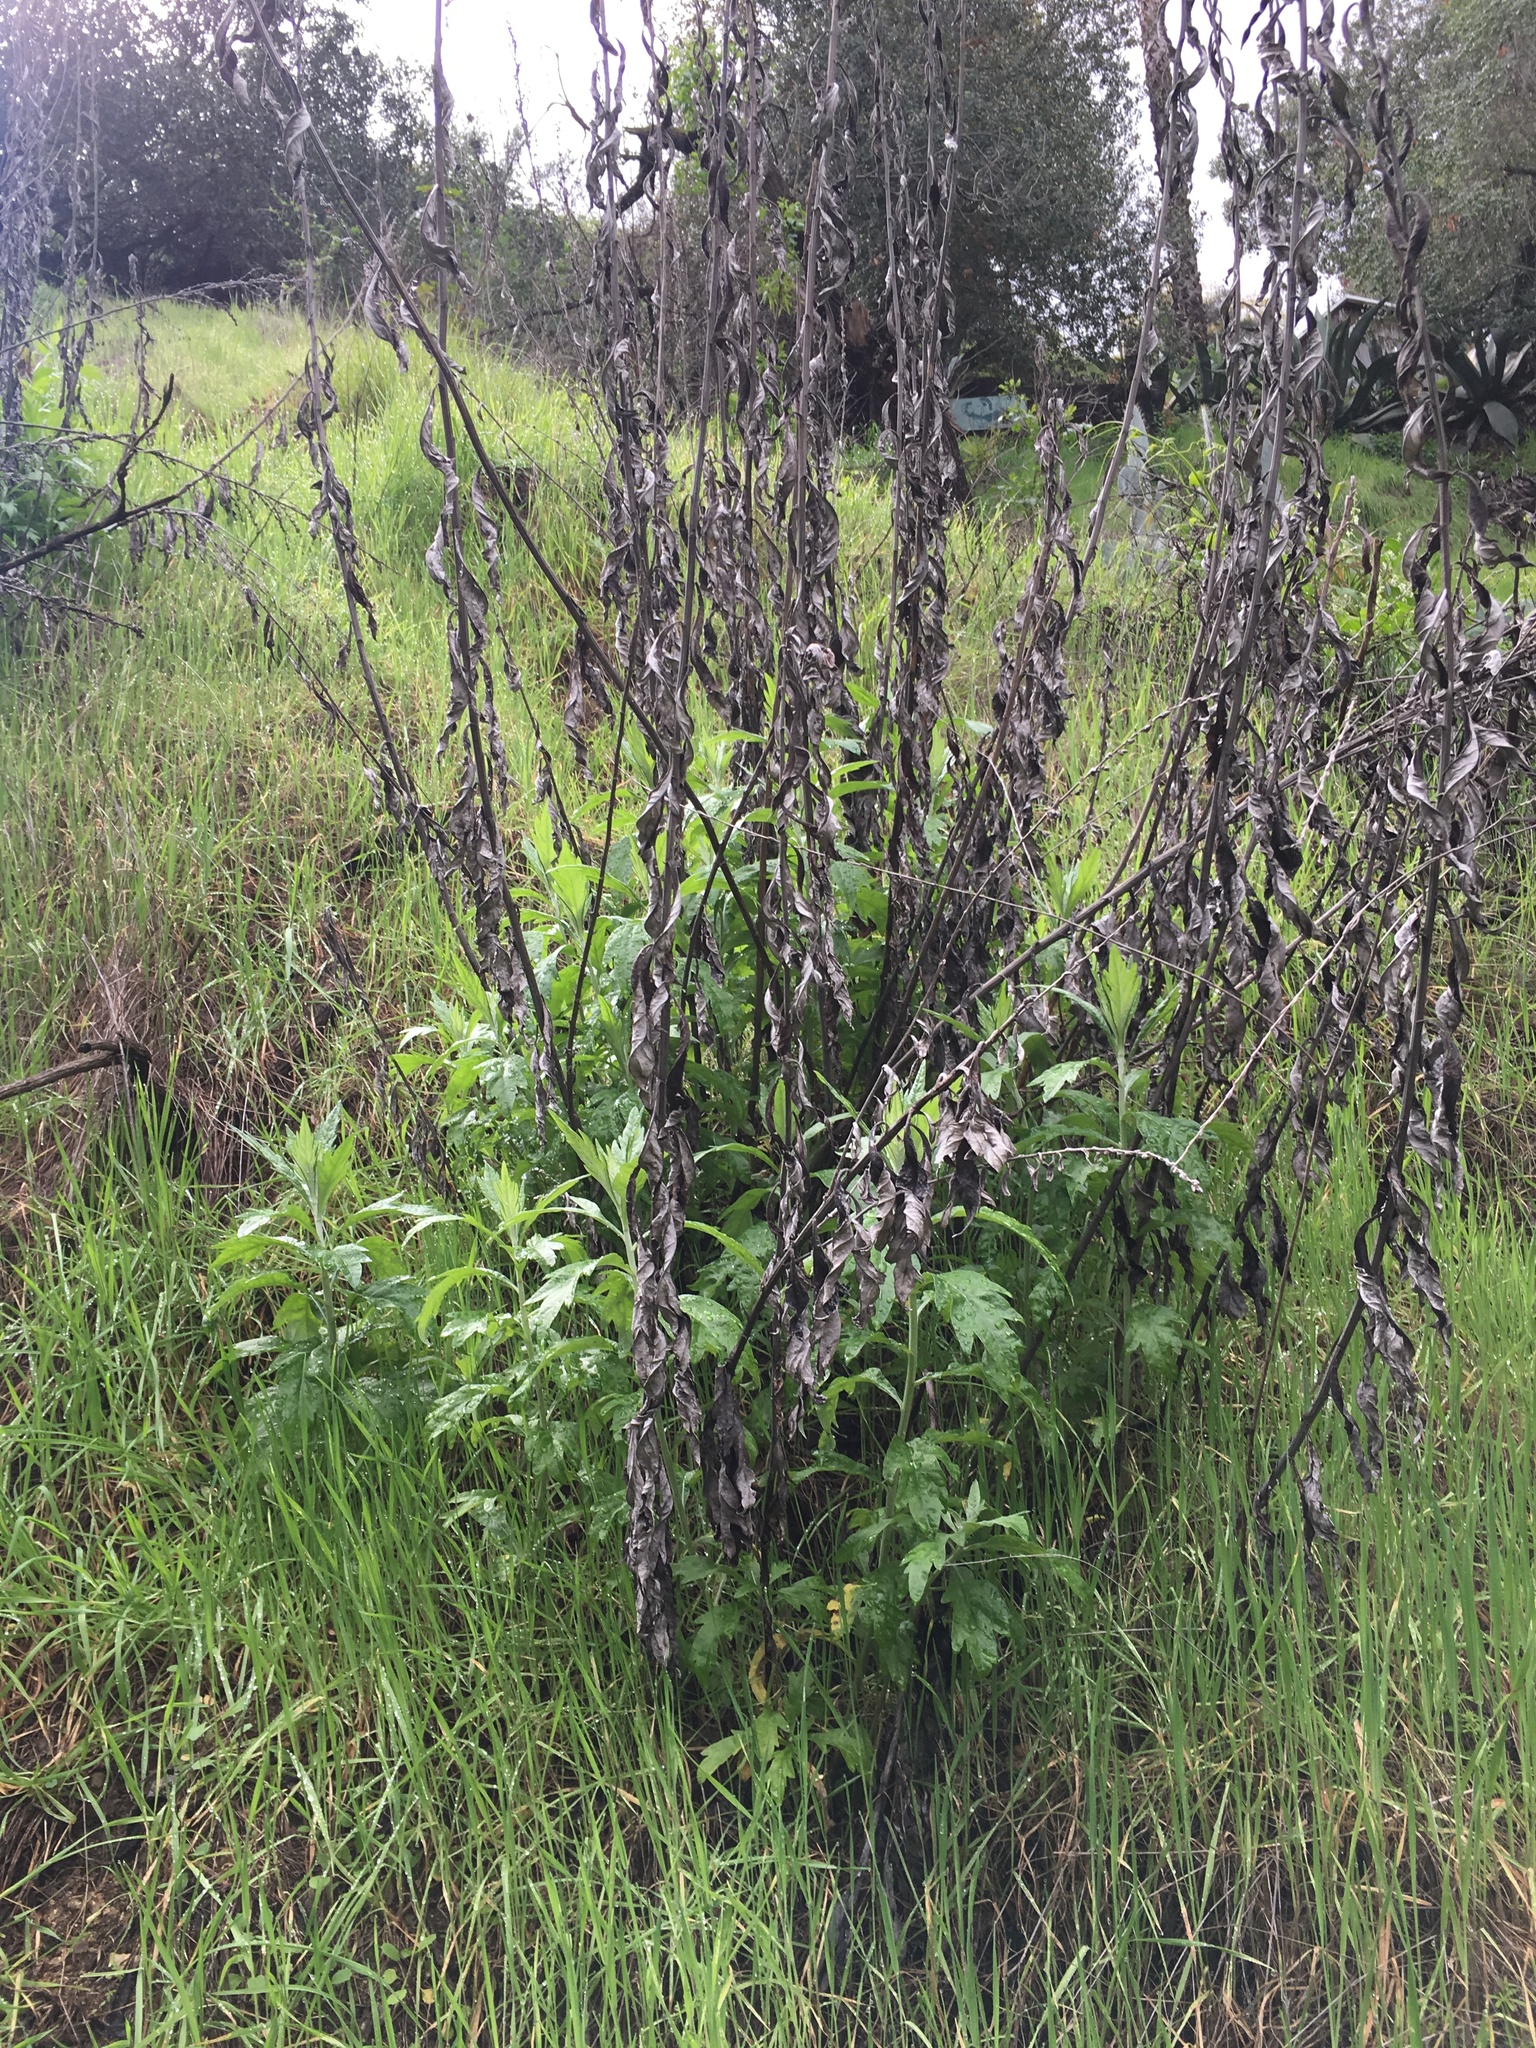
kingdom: Plantae
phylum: Tracheophyta
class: Magnoliopsida
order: Asterales
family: Asteraceae
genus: Artemisia
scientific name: Artemisia douglasiana
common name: Northwest mugwort
